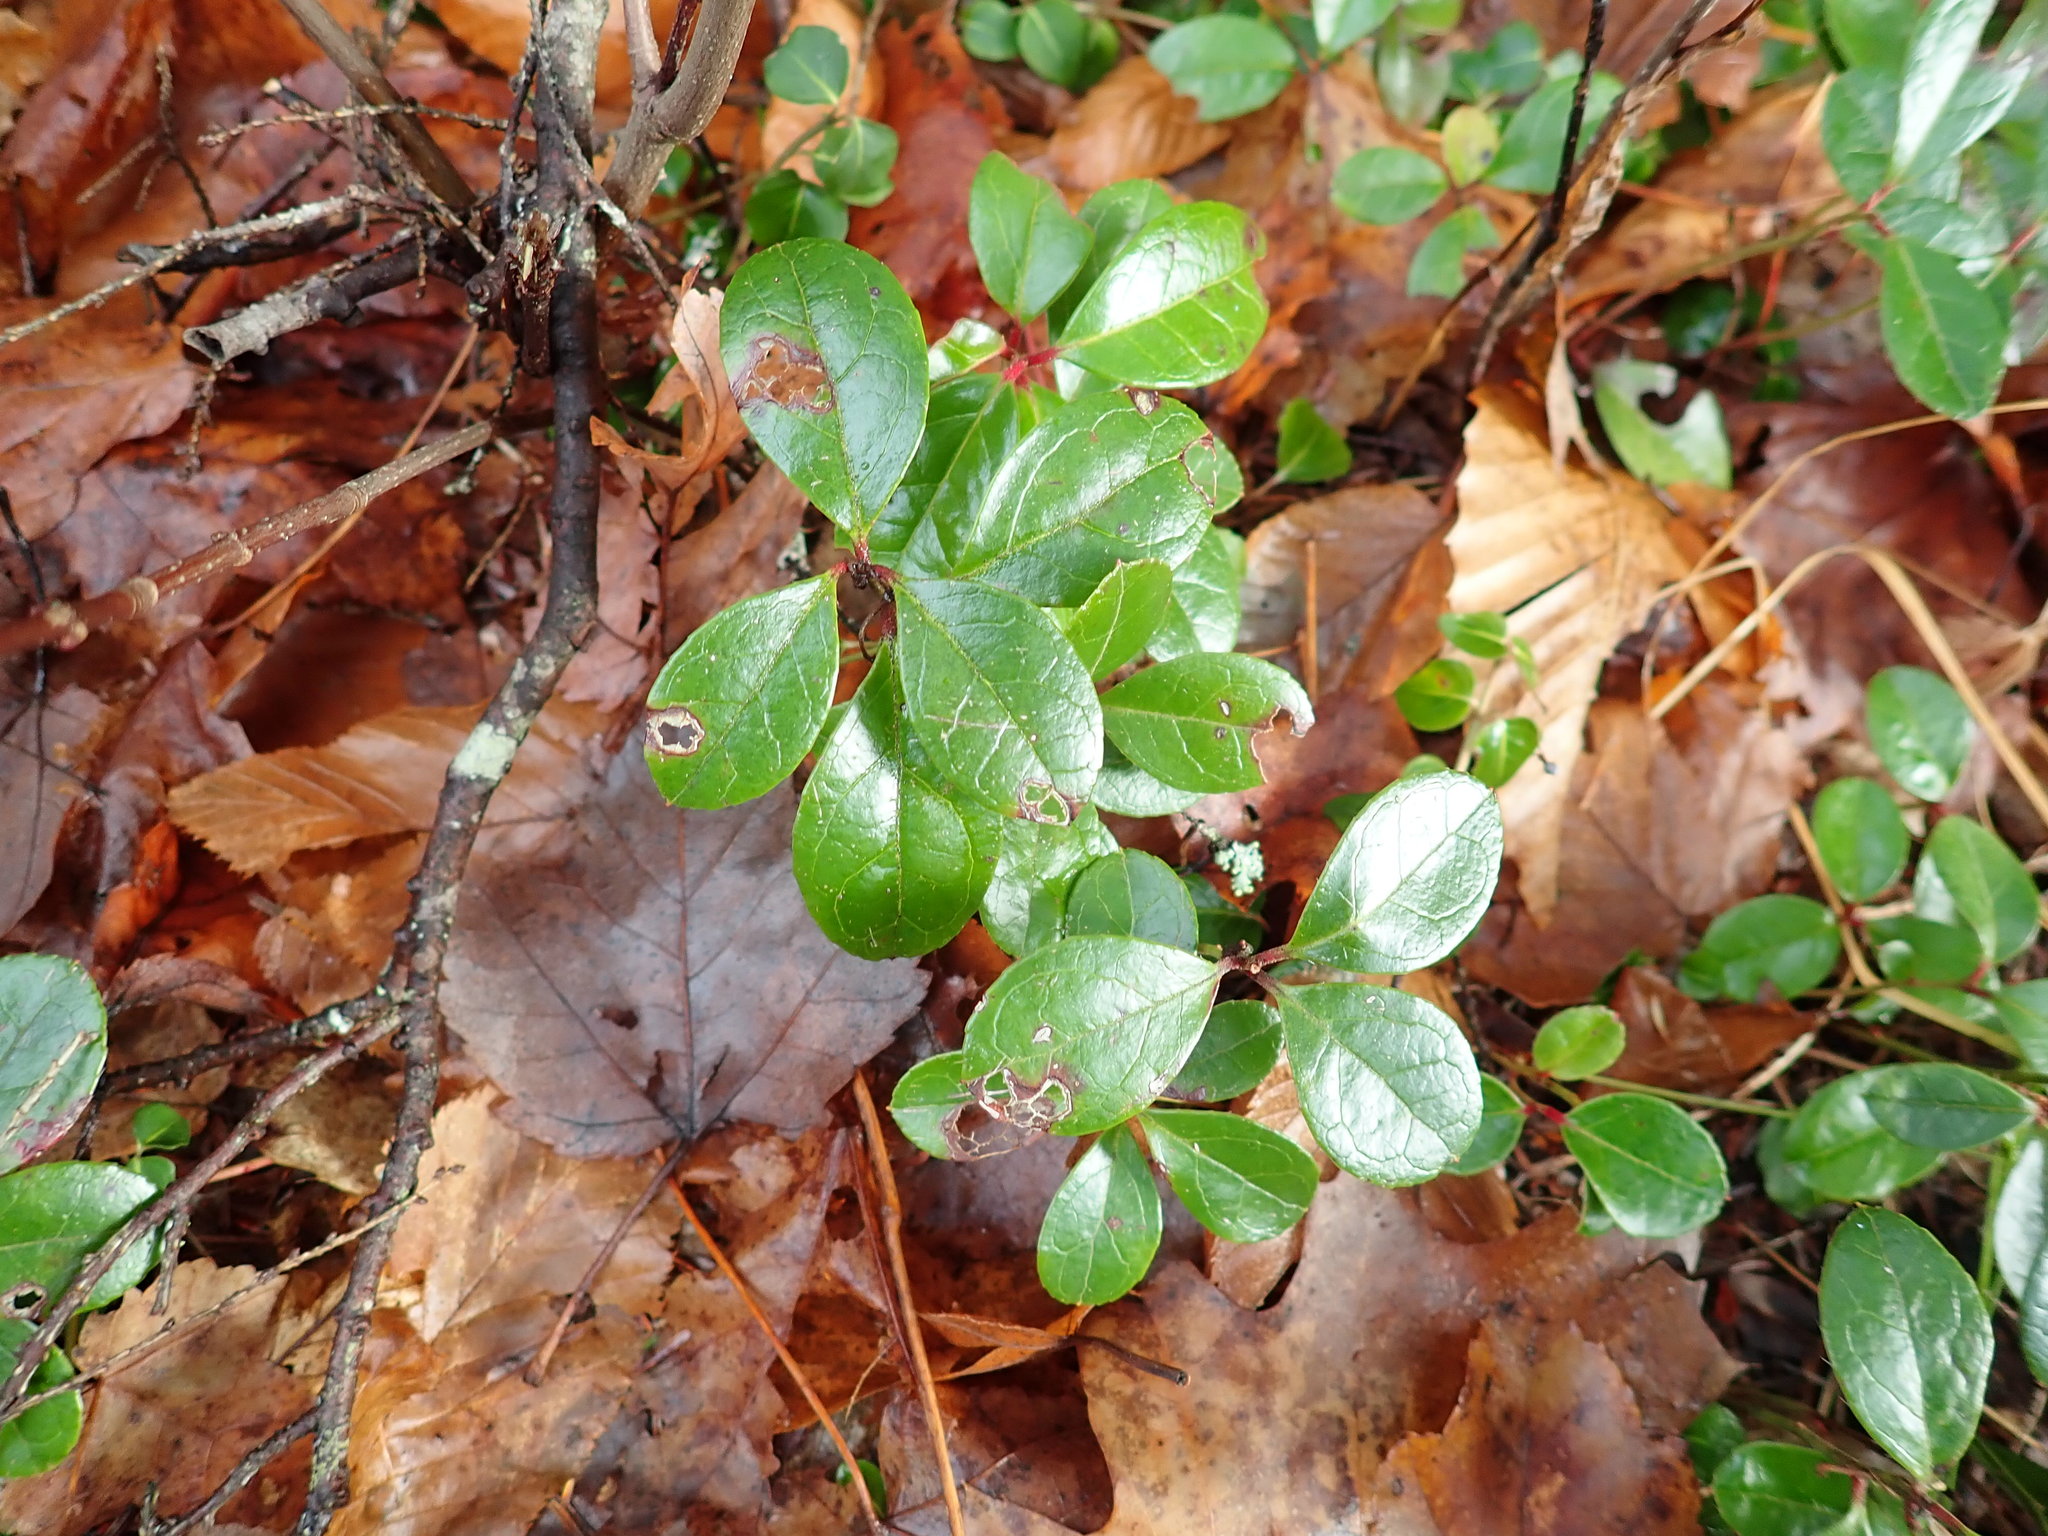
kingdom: Plantae
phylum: Tracheophyta
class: Magnoliopsida
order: Ericales
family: Ericaceae
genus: Gaultheria
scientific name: Gaultheria procumbens
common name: Checkerberry
